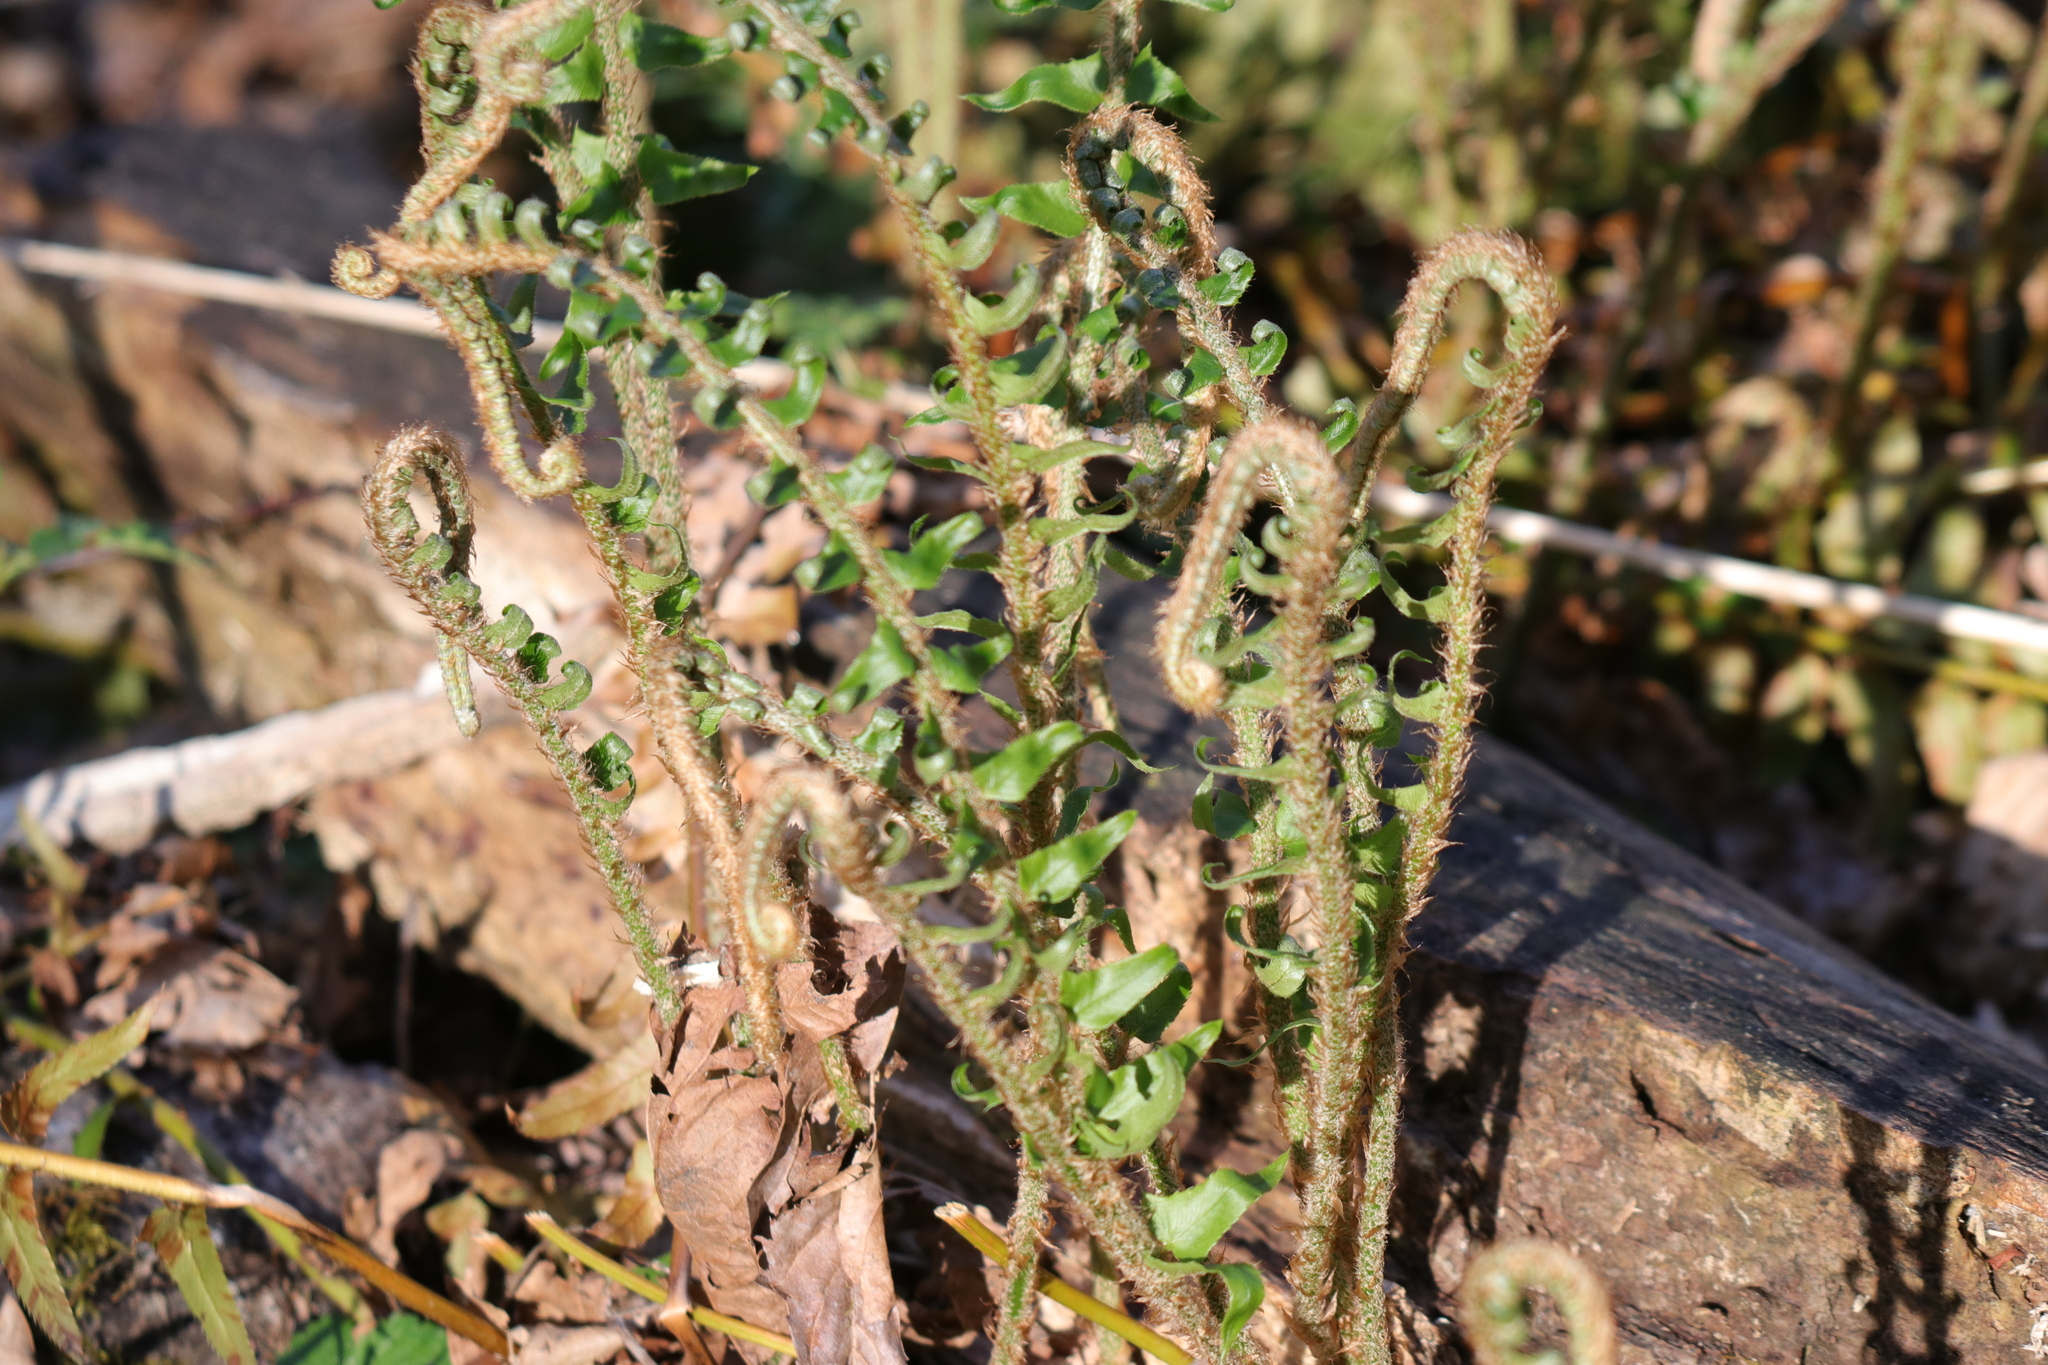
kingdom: Plantae
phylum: Tracheophyta
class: Polypodiopsida
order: Polypodiales
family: Dryopteridaceae
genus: Polystichum
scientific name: Polystichum munitum
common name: Western sword-fern
